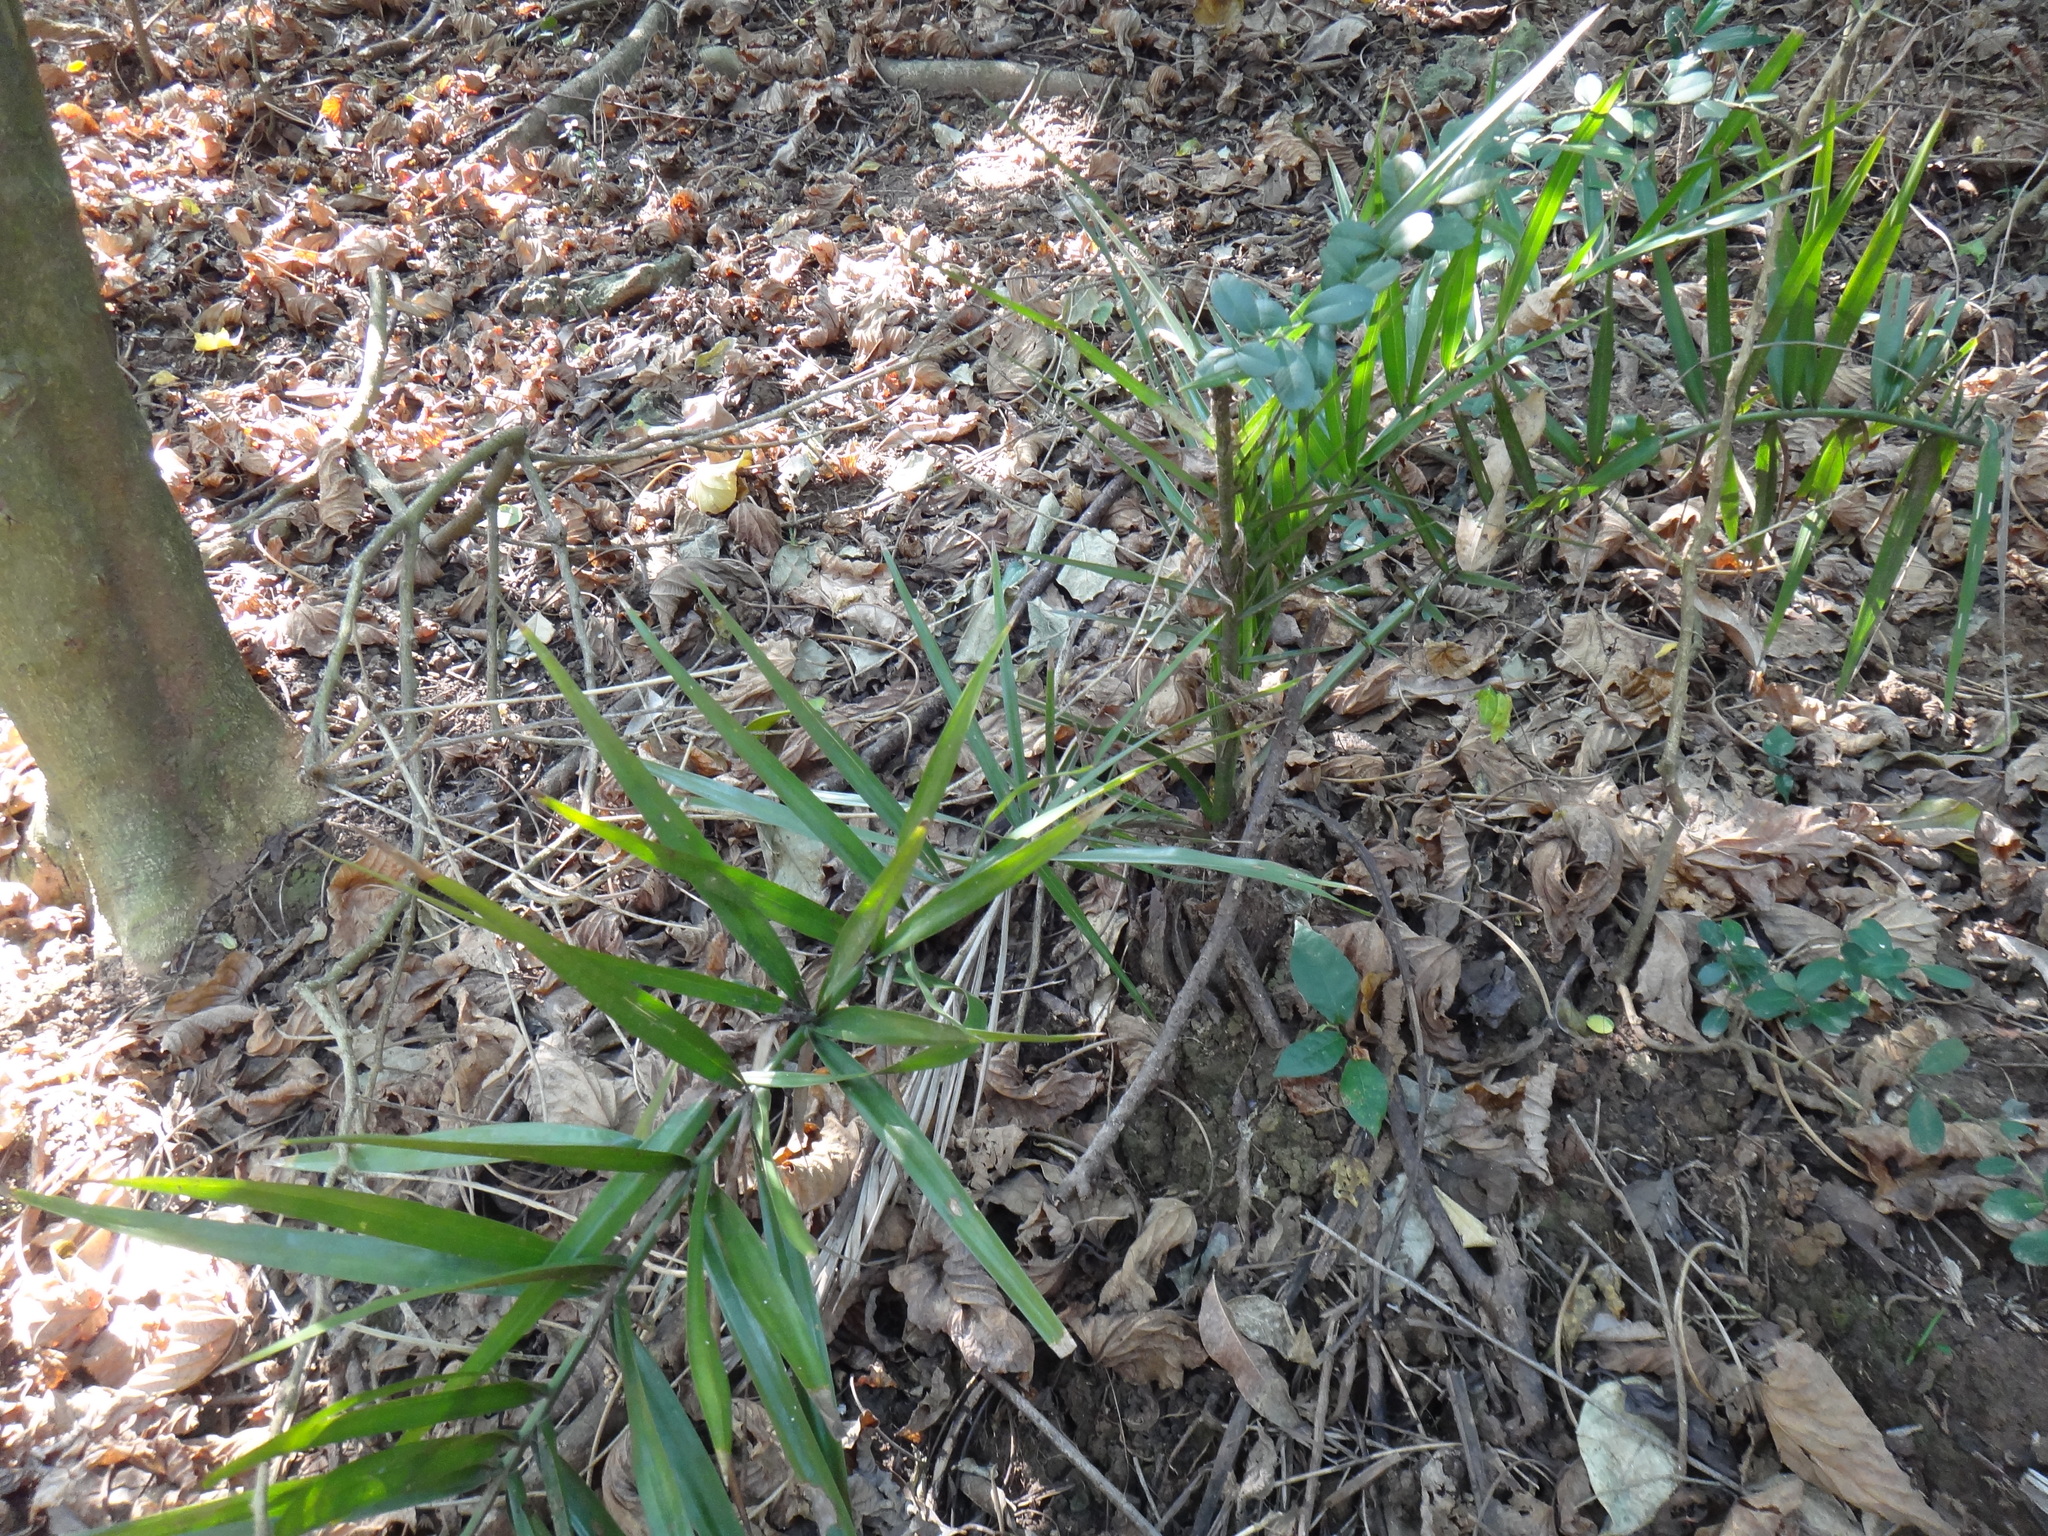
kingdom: Plantae
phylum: Tracheophyta
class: Liliopsida
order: Arecales
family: Arecaceae
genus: Phoenix
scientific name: Phoenix loureiroi
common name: Loureiro's palm
